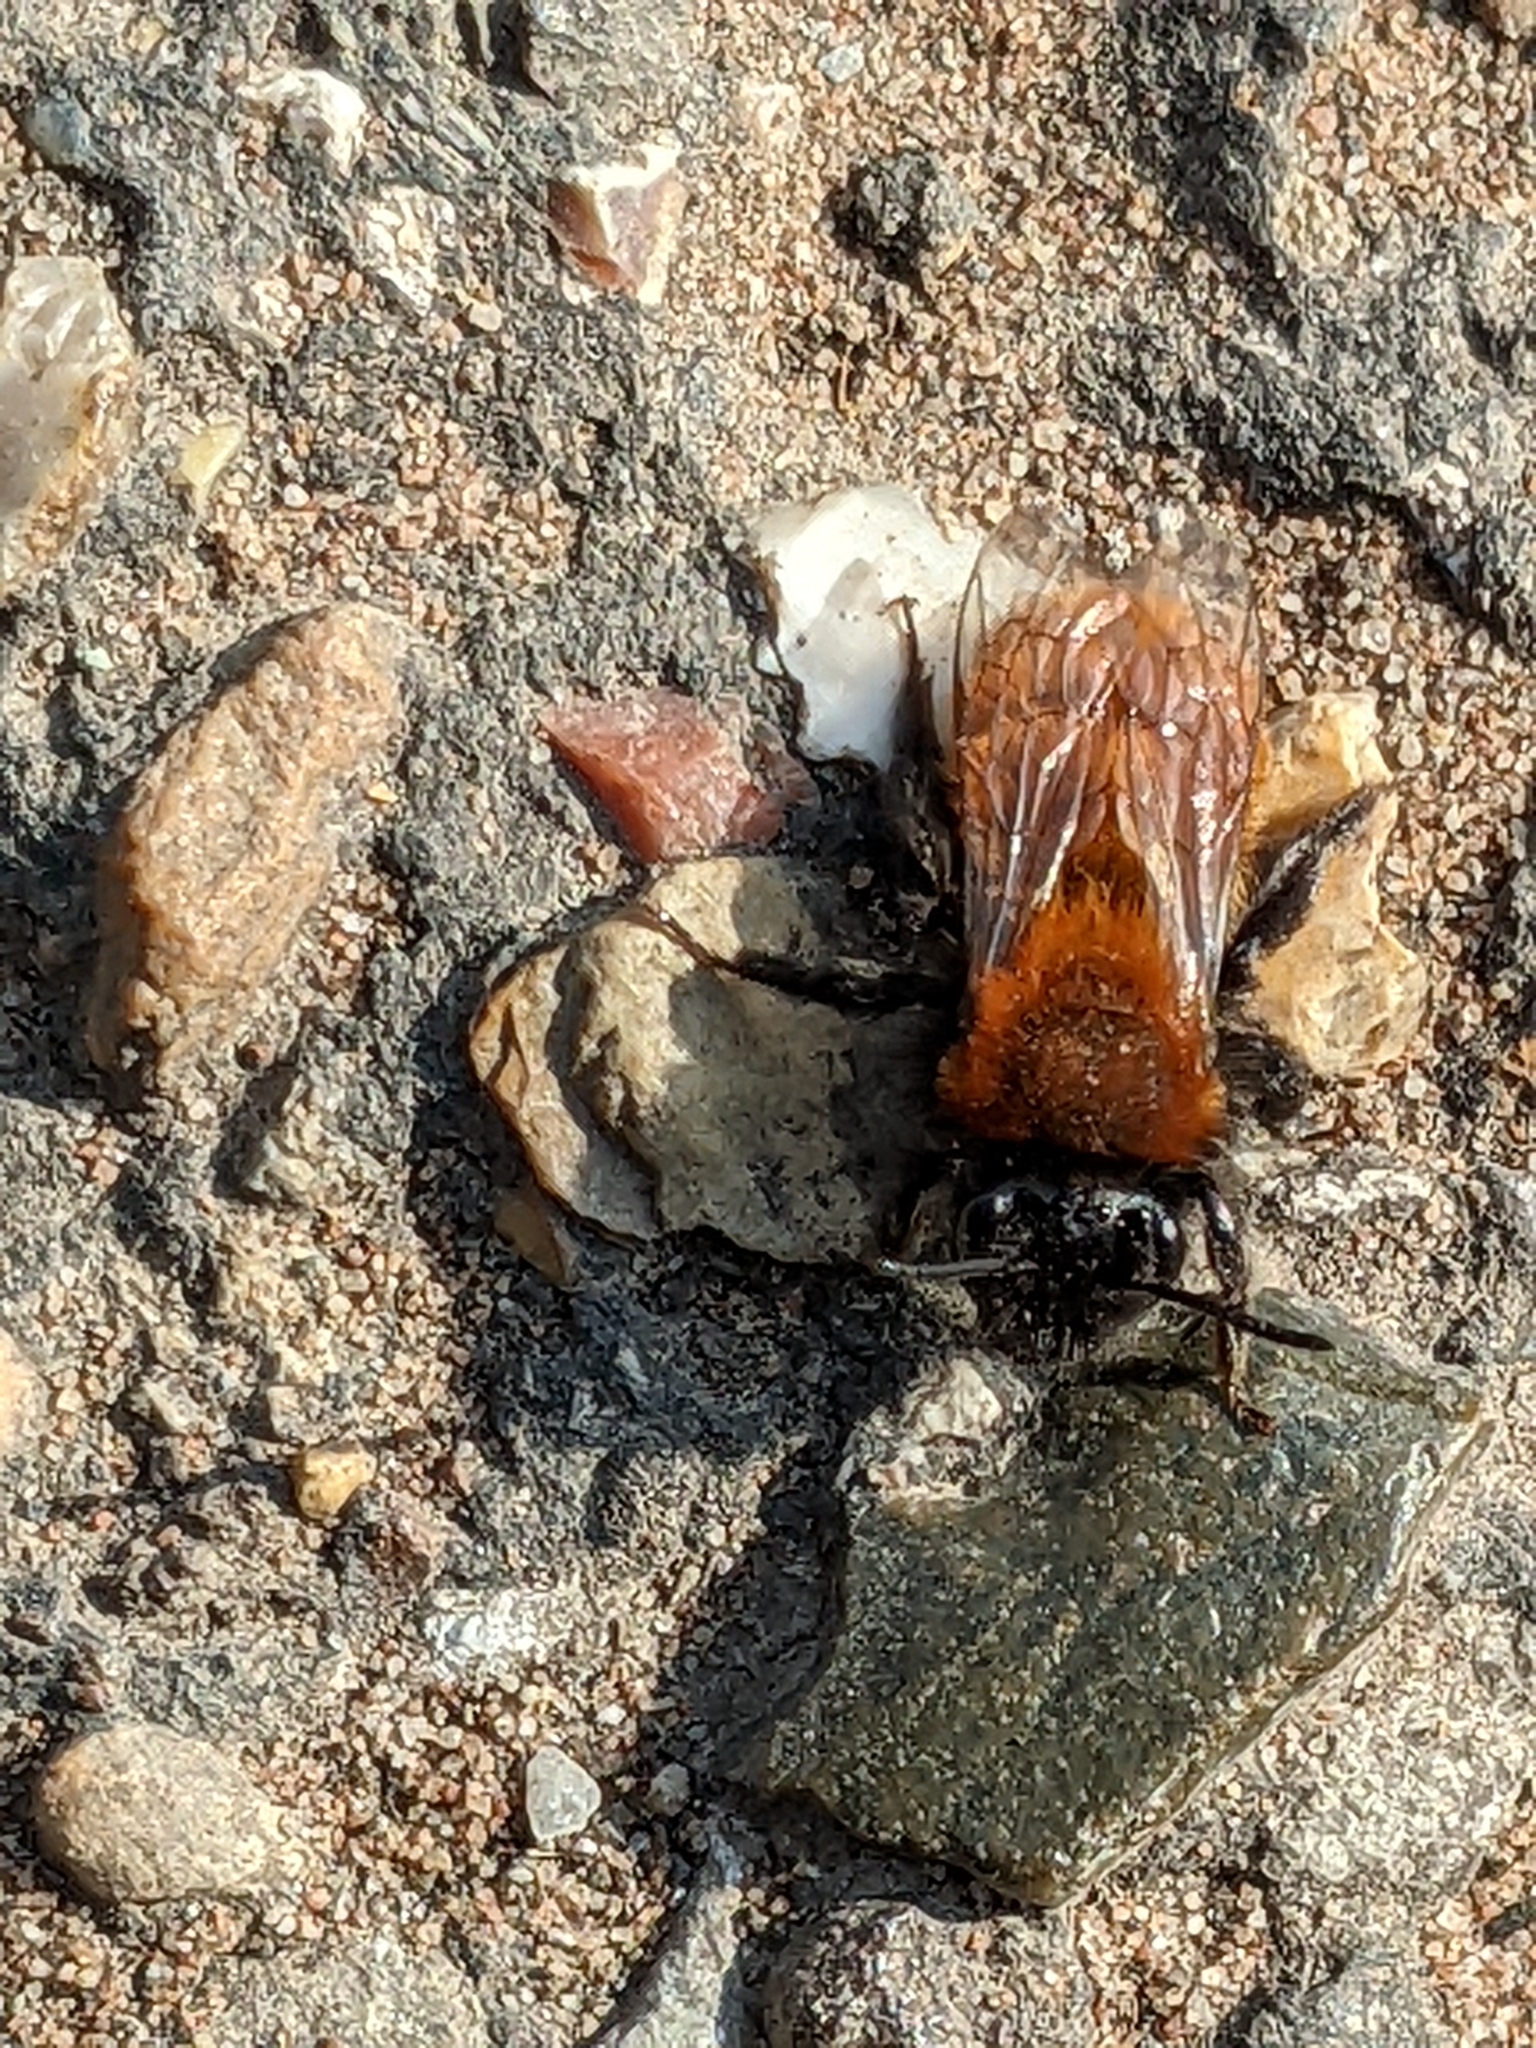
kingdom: Animalia
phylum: Arthropoda
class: Insecta
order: Hymenoptera
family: Andrenidae
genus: Andrena
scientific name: Andrena fulva
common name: Tawny mining bee
